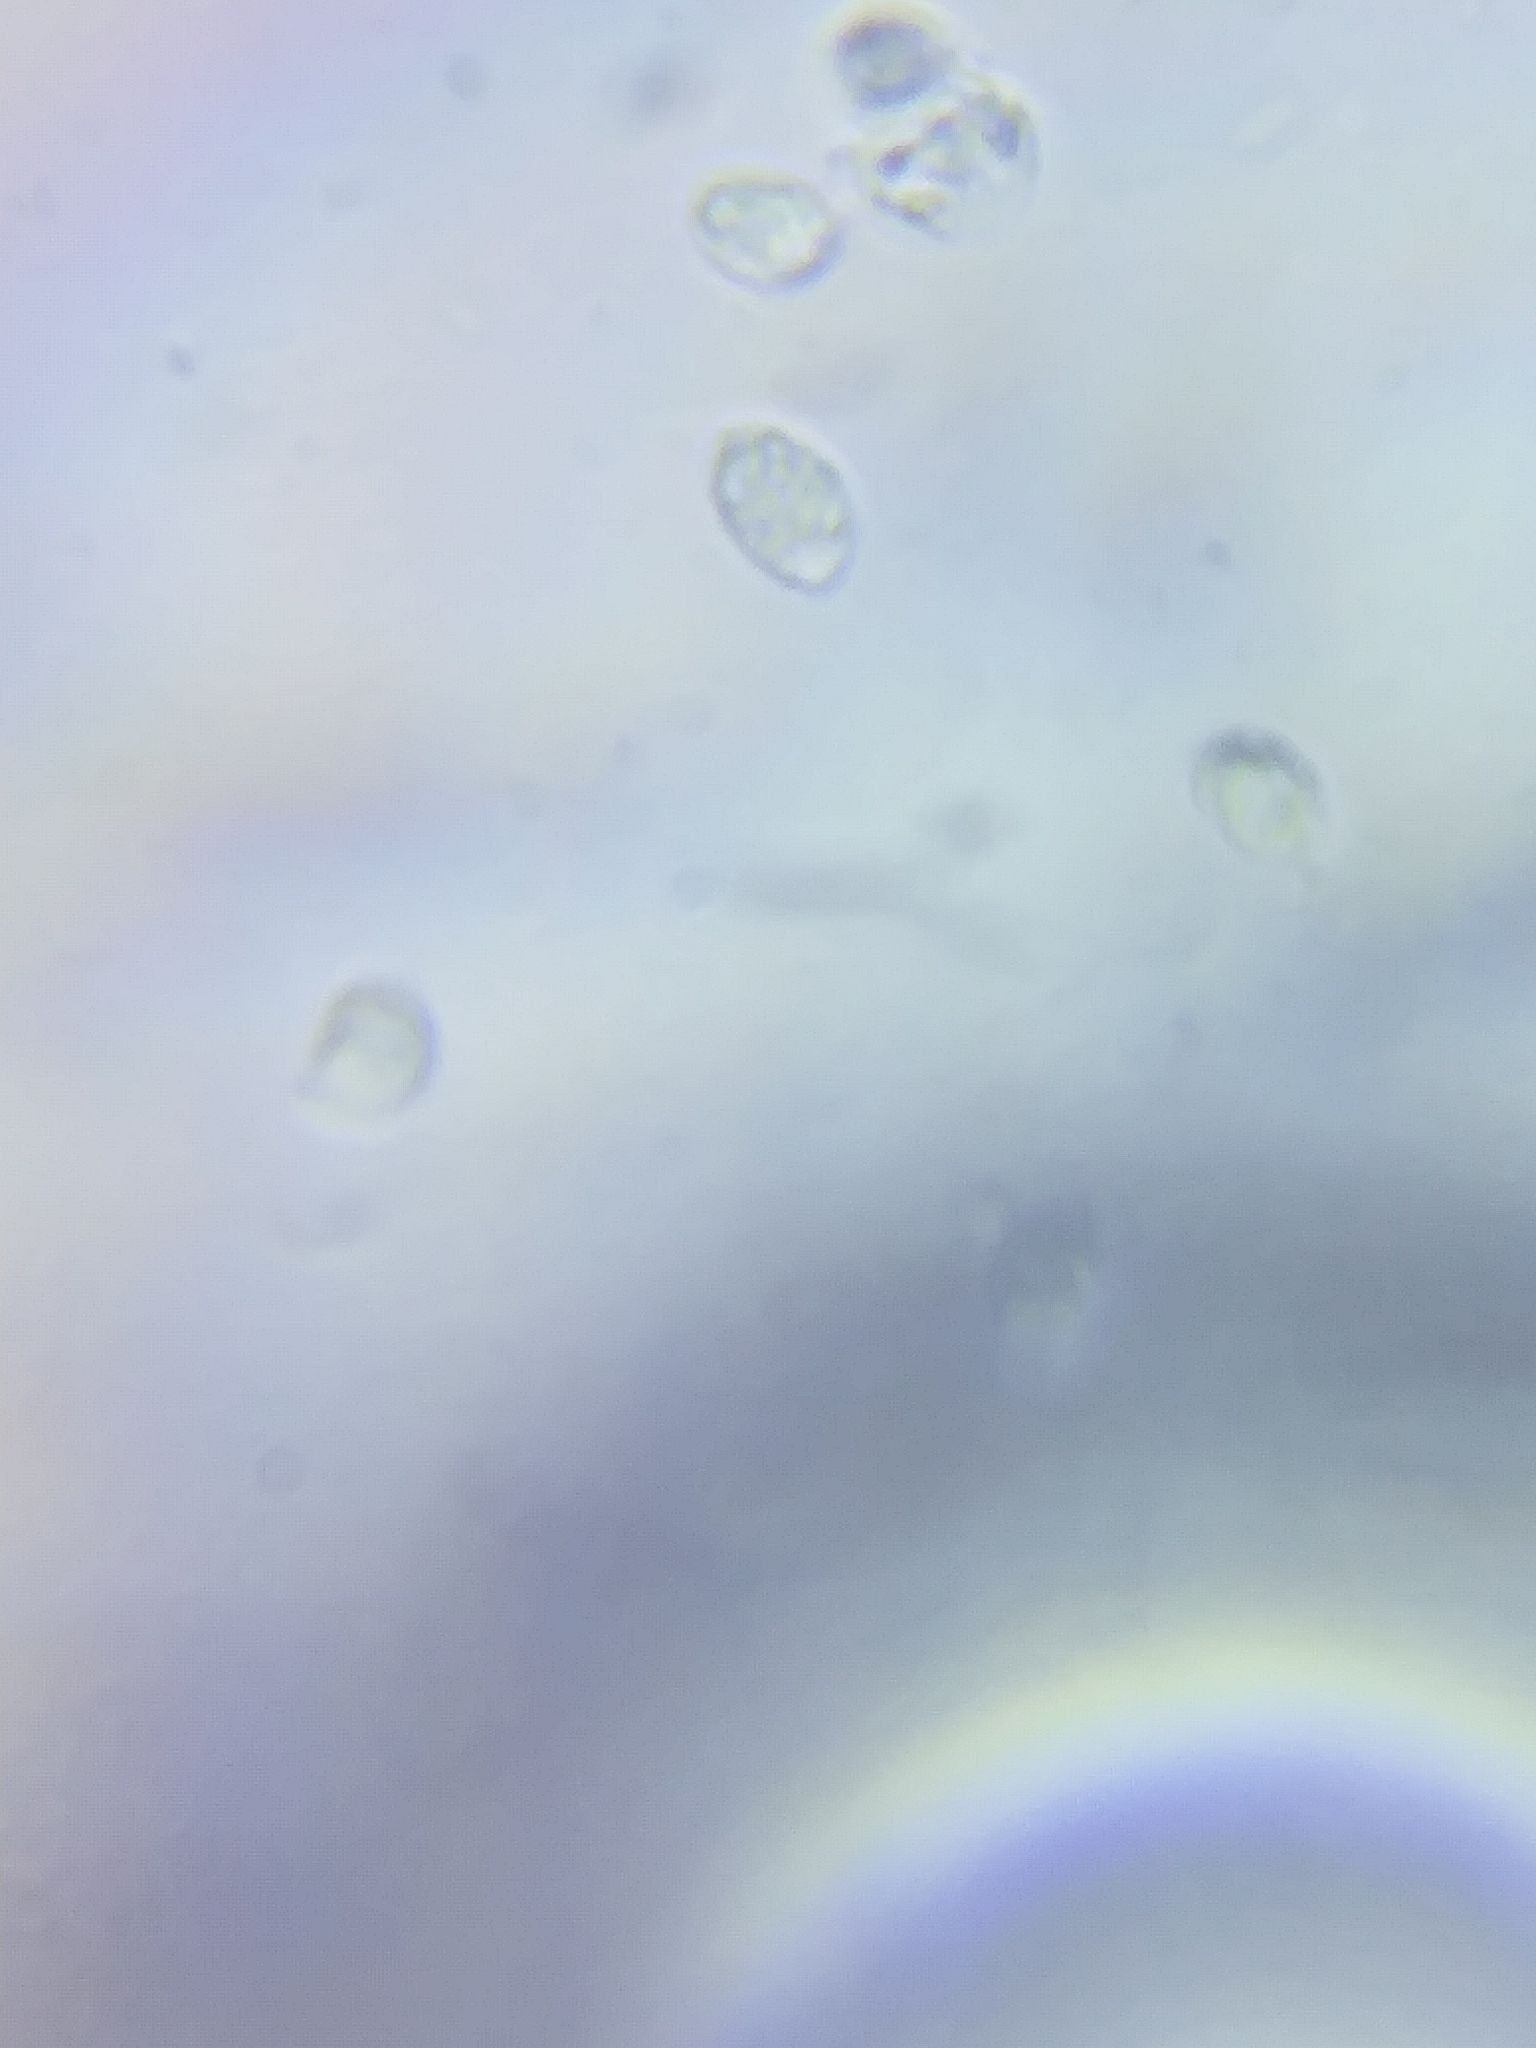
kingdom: Fungi
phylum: Basidiomycota
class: Agaricomycetes
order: Agaricales
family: Tricholomataceae
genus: Tricholoma
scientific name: Tricholoma sulphurescens
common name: Yellow staining knight
